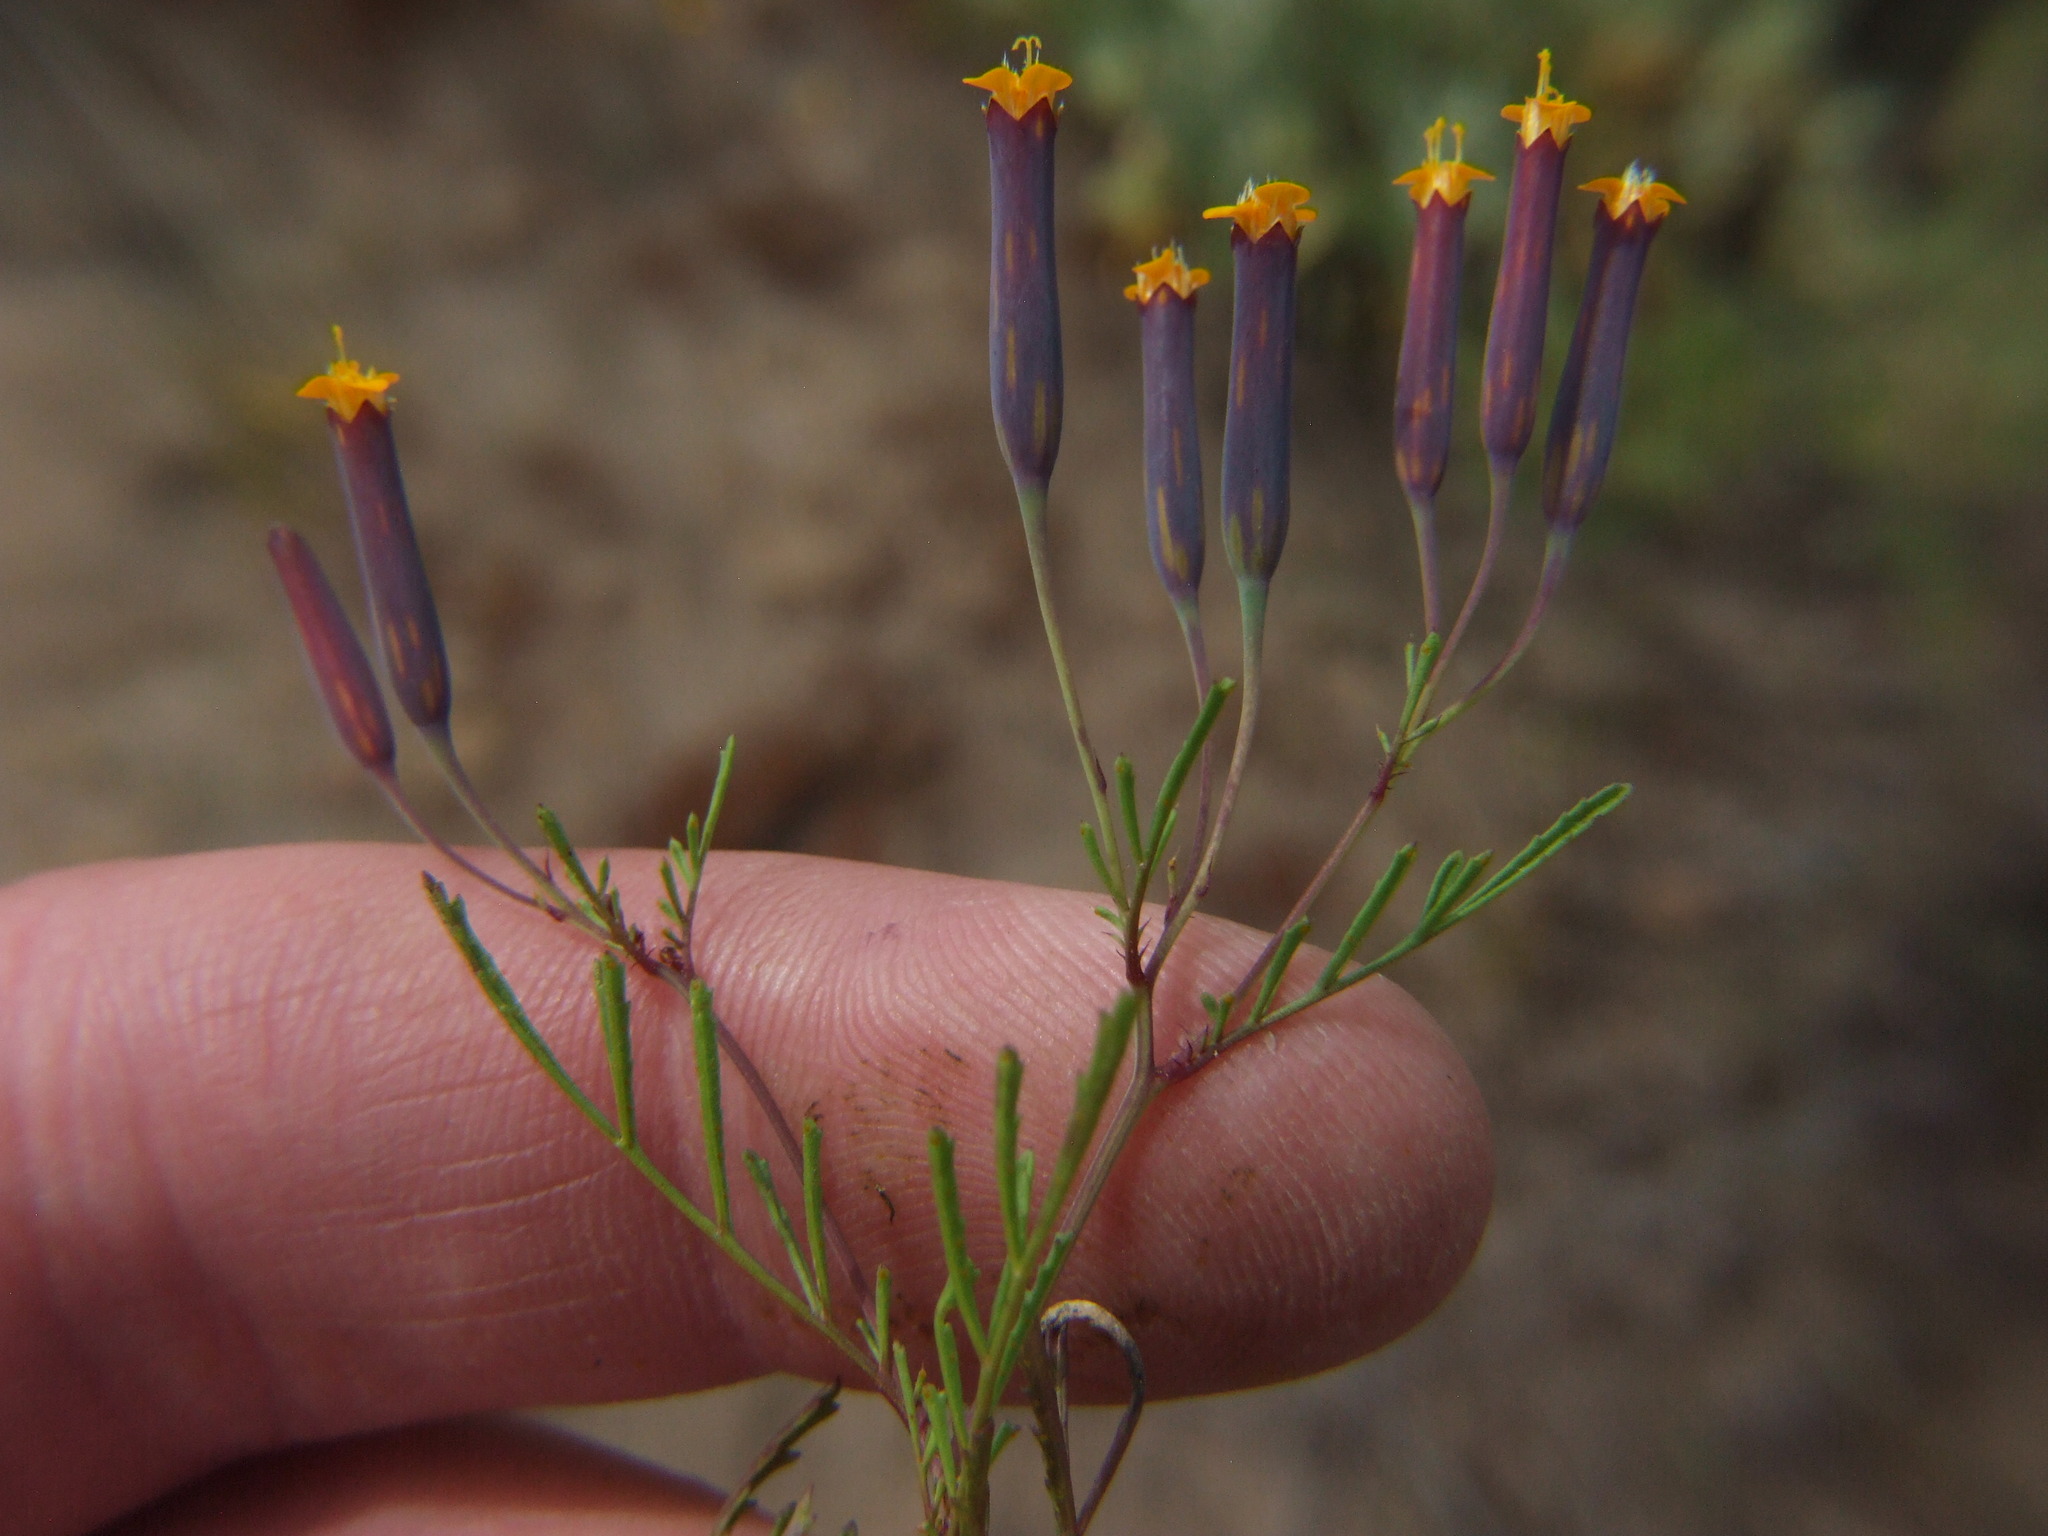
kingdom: Plantae
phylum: Tracheophyta
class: Magnoliopsida
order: Asterales
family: Asteraceae
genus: Tagetes
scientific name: Tagetes multiflora
